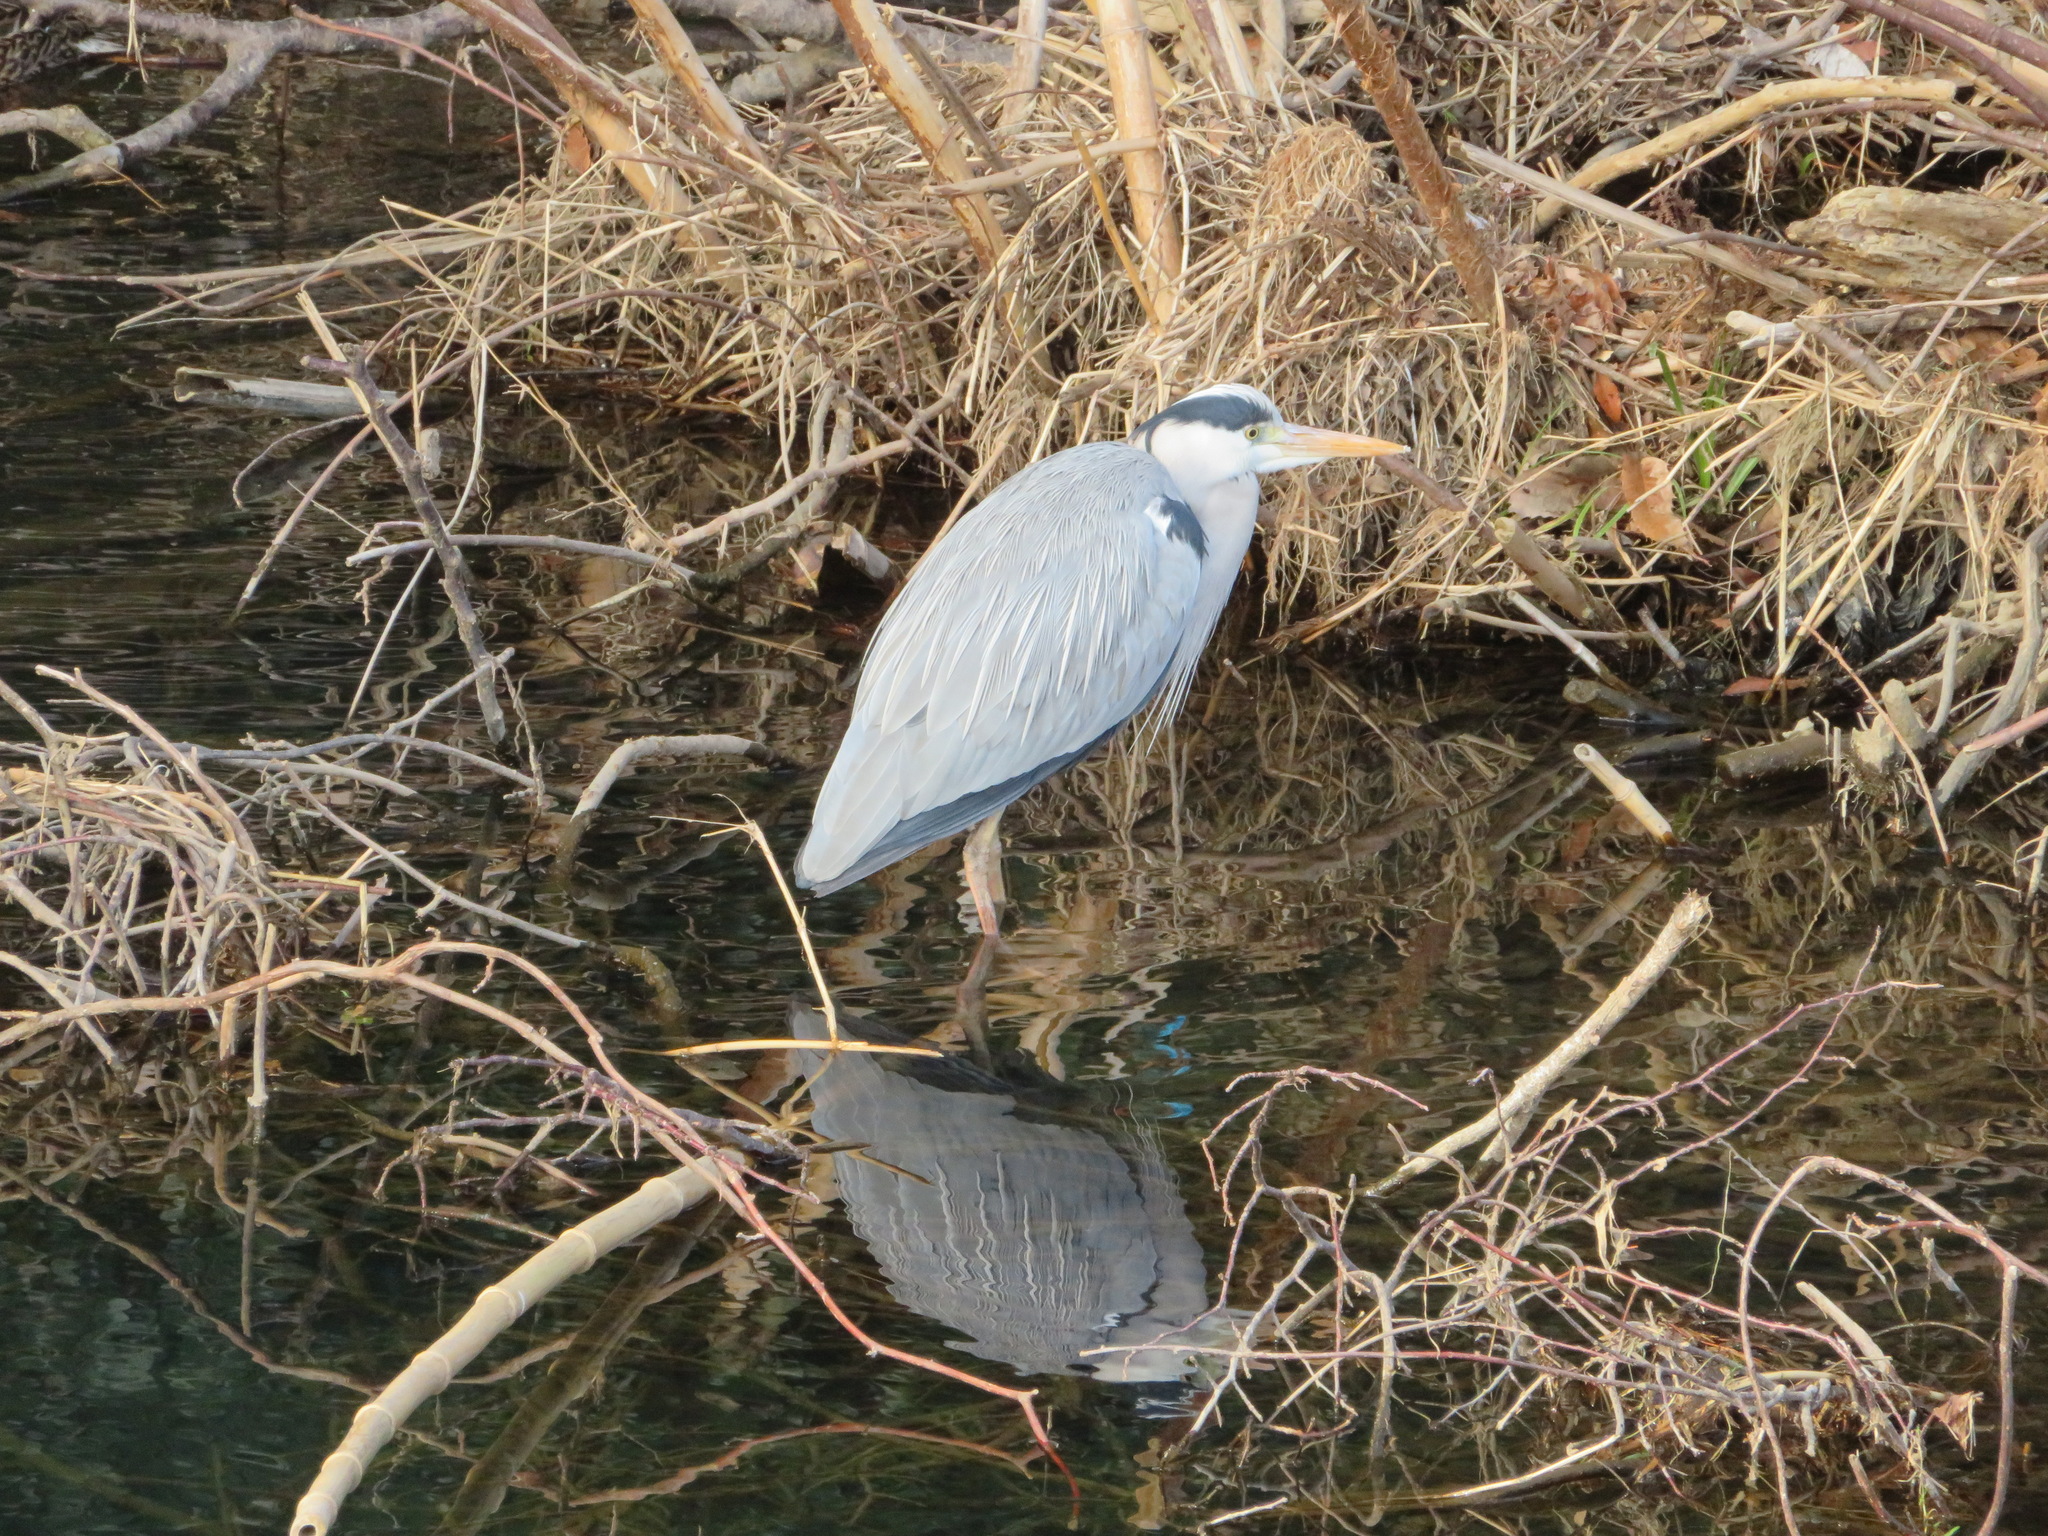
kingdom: Animalia
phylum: Chordata
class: Aves
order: Pelecaniformes
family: Ardeidae
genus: Ardea
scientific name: Ardea cinerea
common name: Grey heron
